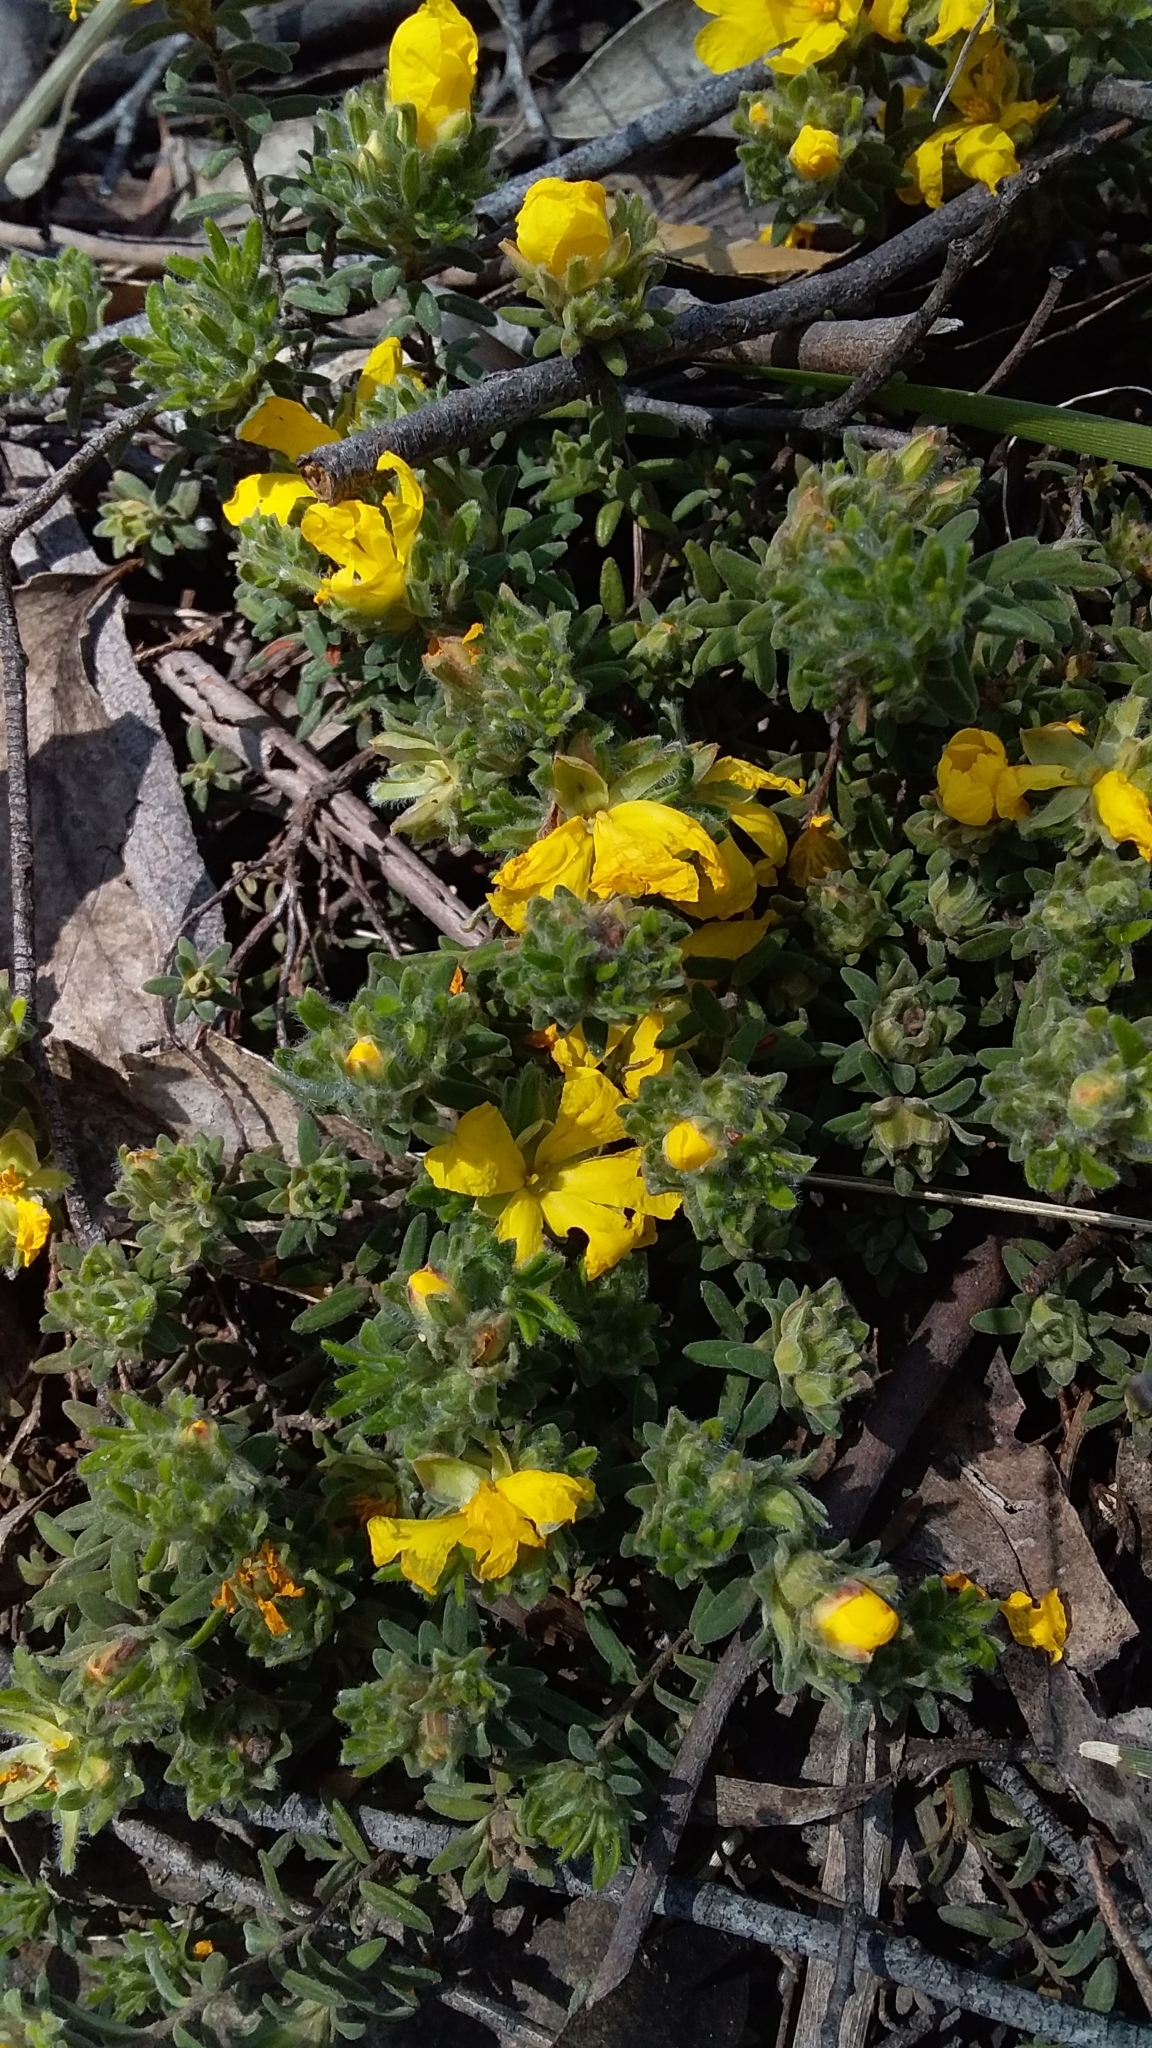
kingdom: Plantae
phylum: Tracheophyta
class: Magnoliopsida
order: Dilleniales
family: Dilleniaceae
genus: Hibbertia
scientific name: Hibbertia crinita
